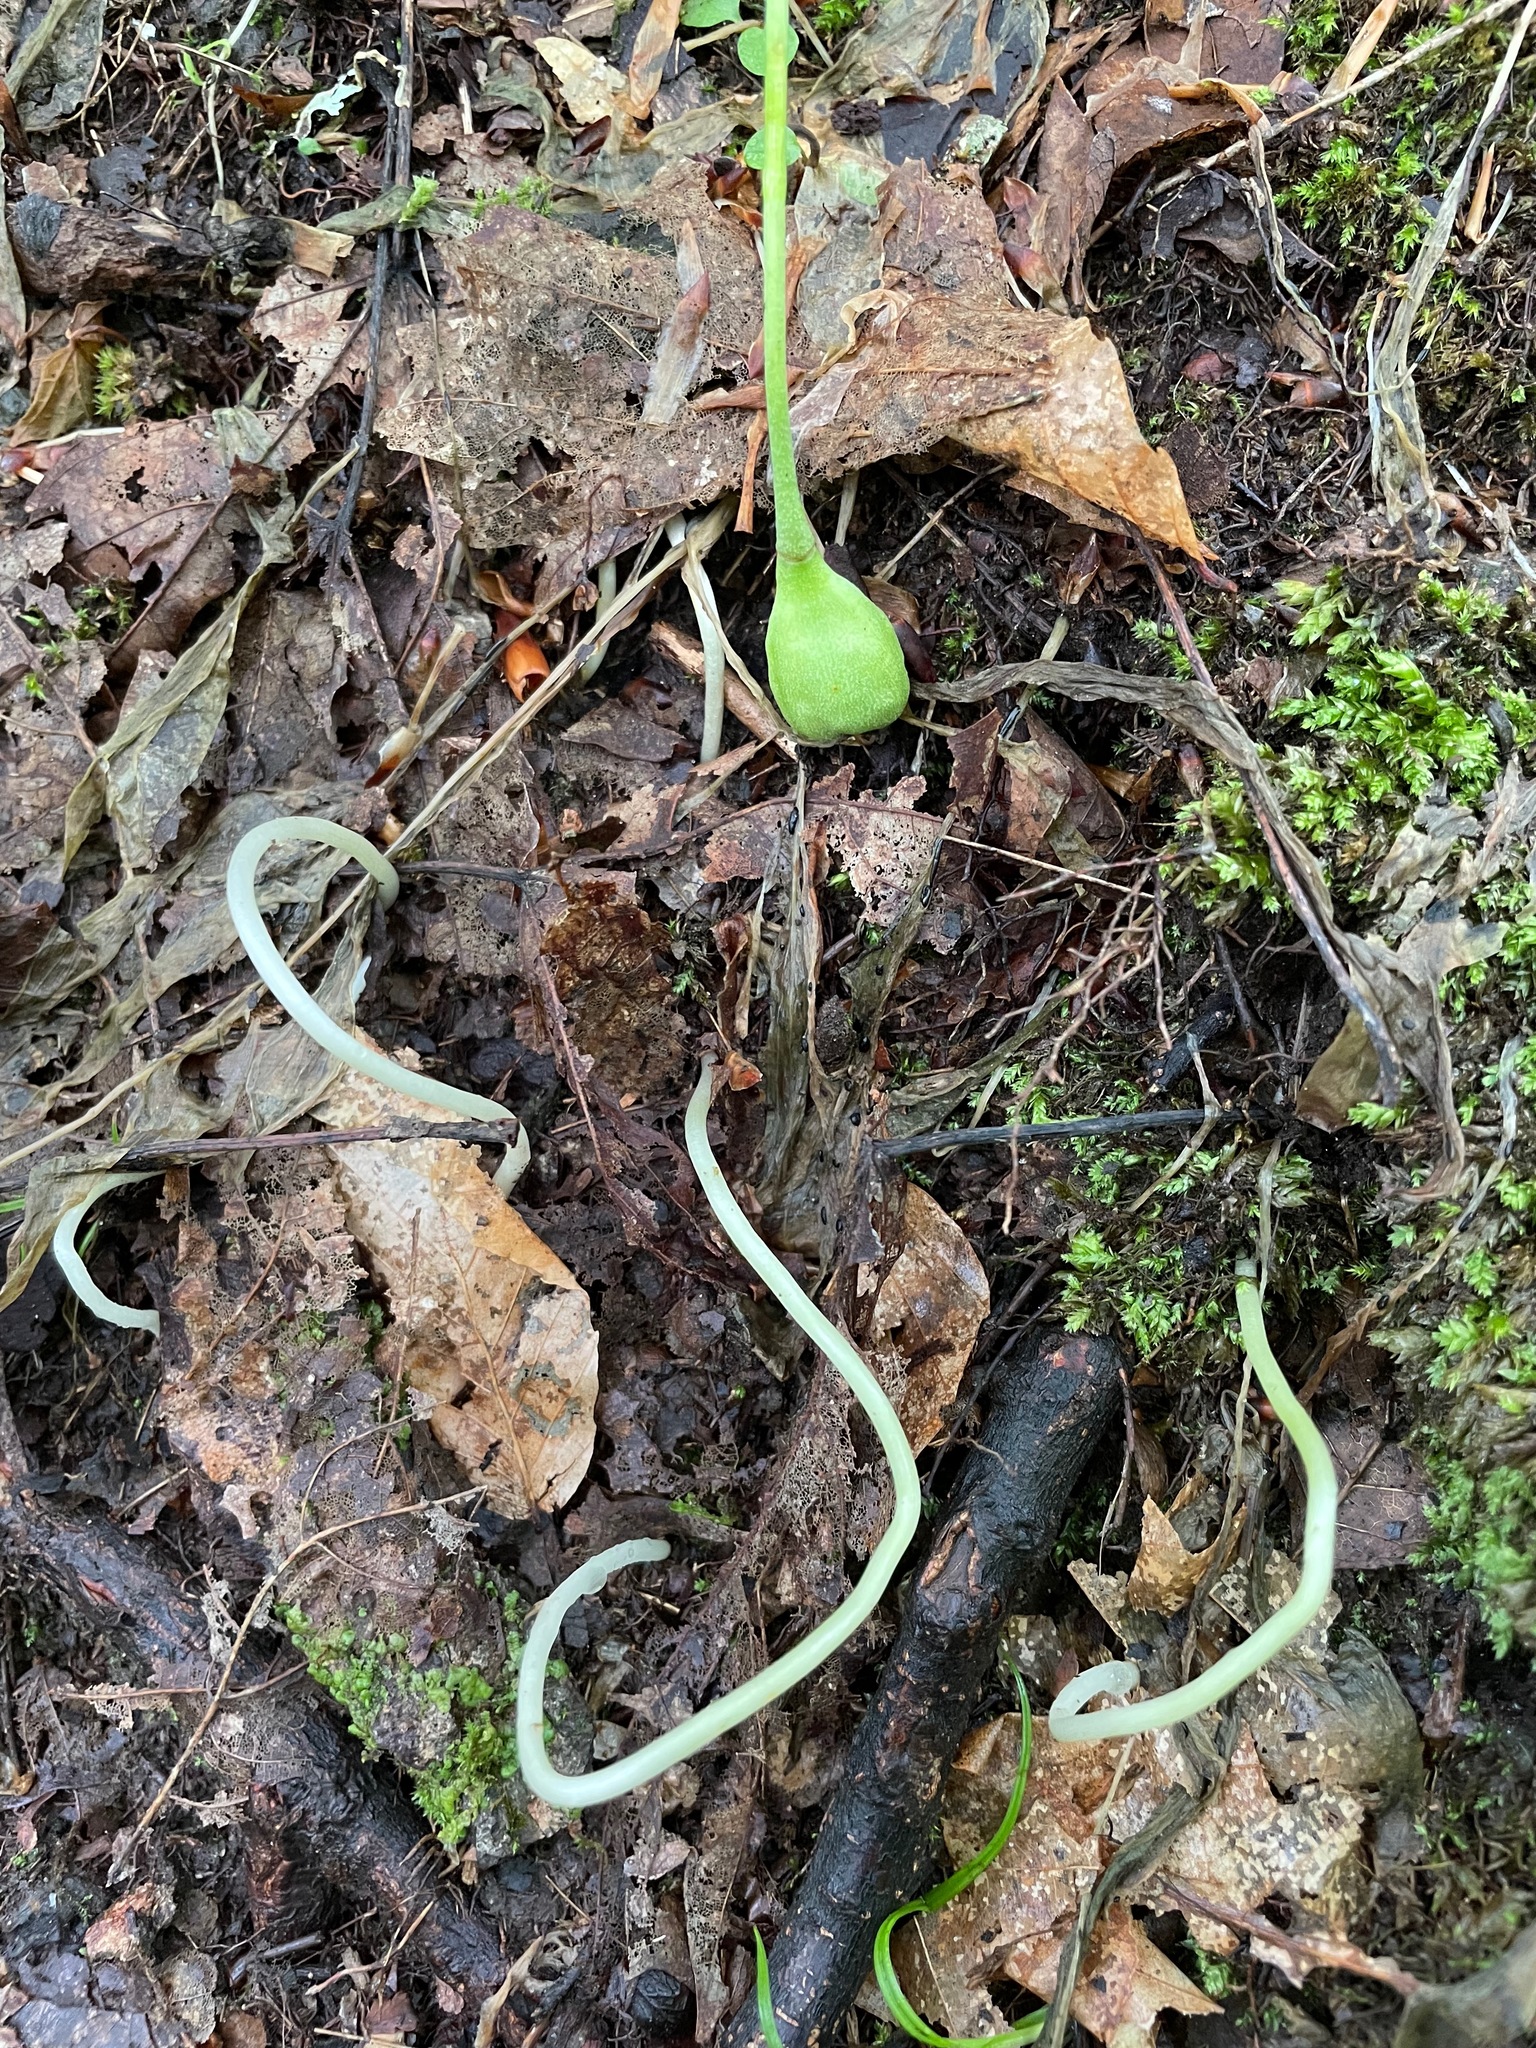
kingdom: Plantae
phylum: Tracheophyta
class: Liliopsida
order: Liliales
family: Liliaceae
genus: Erythronium
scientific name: Erythronium americanum
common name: Yellow adder's-tongue
